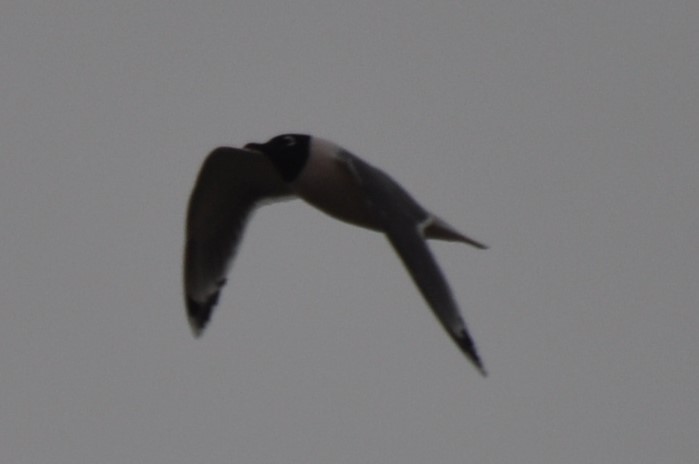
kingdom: Animalia
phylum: Chordata
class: Aves
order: Charadriiformes
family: Laridae
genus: Leucophaeus
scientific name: Leucophaeus pipixcan
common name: Franklin's gull
